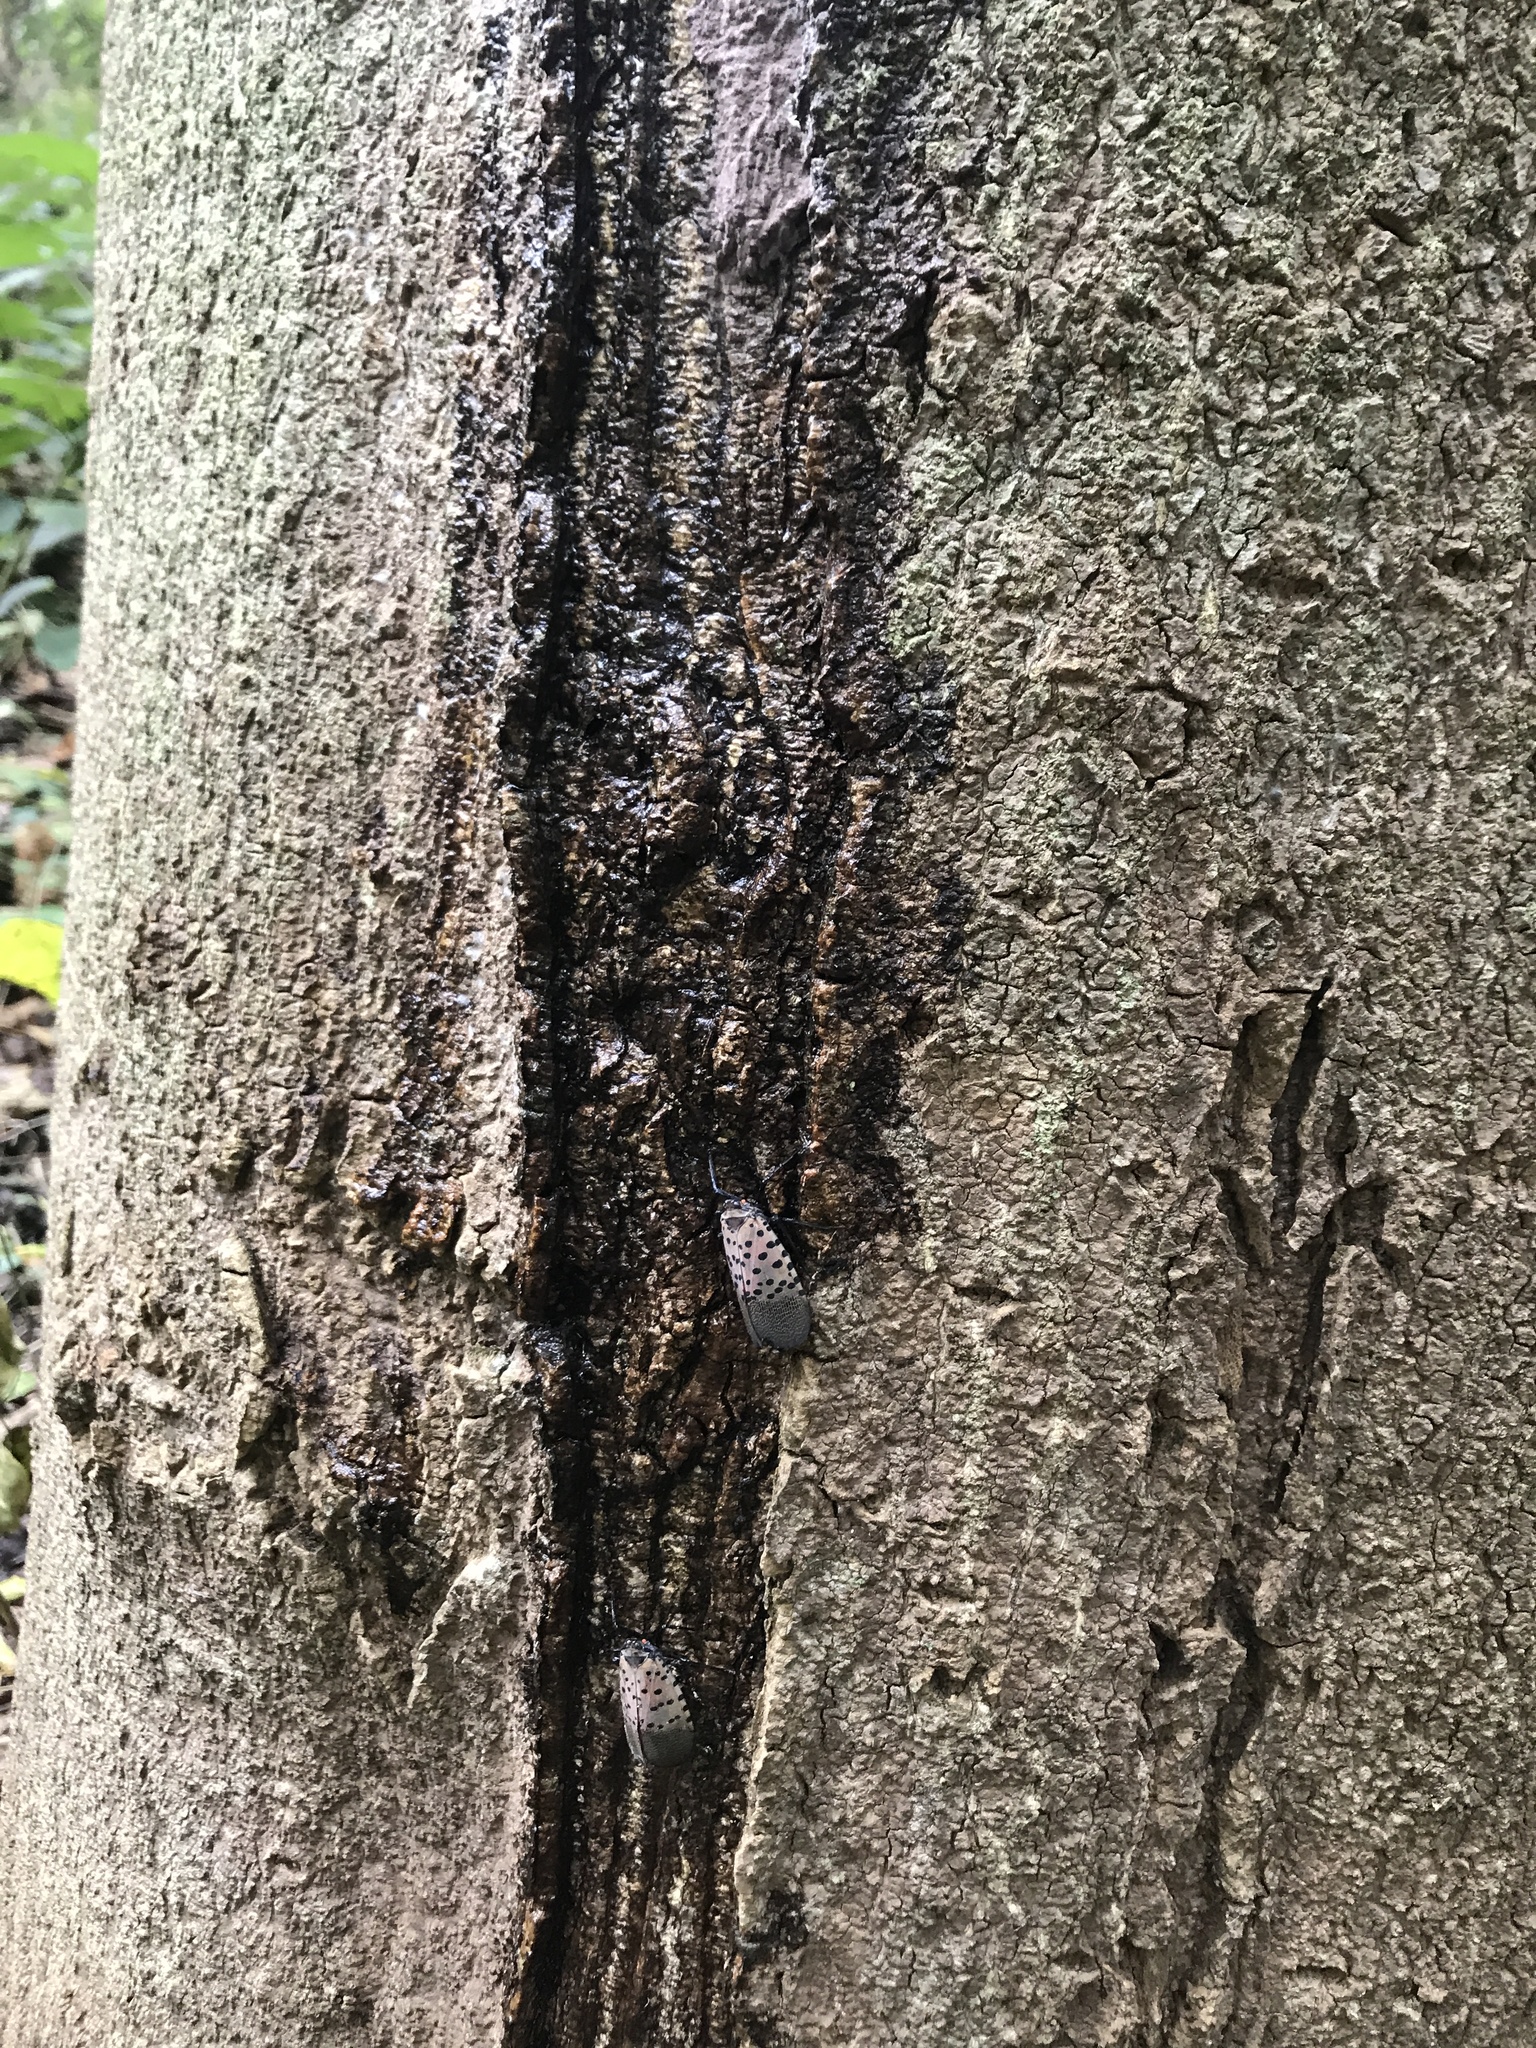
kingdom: Animalia
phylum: Arthropoda
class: Insecta
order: Hemiptera
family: Fulgoridae
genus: Lycorma
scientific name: Lycorma delicatula
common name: Spotted lanternfly
